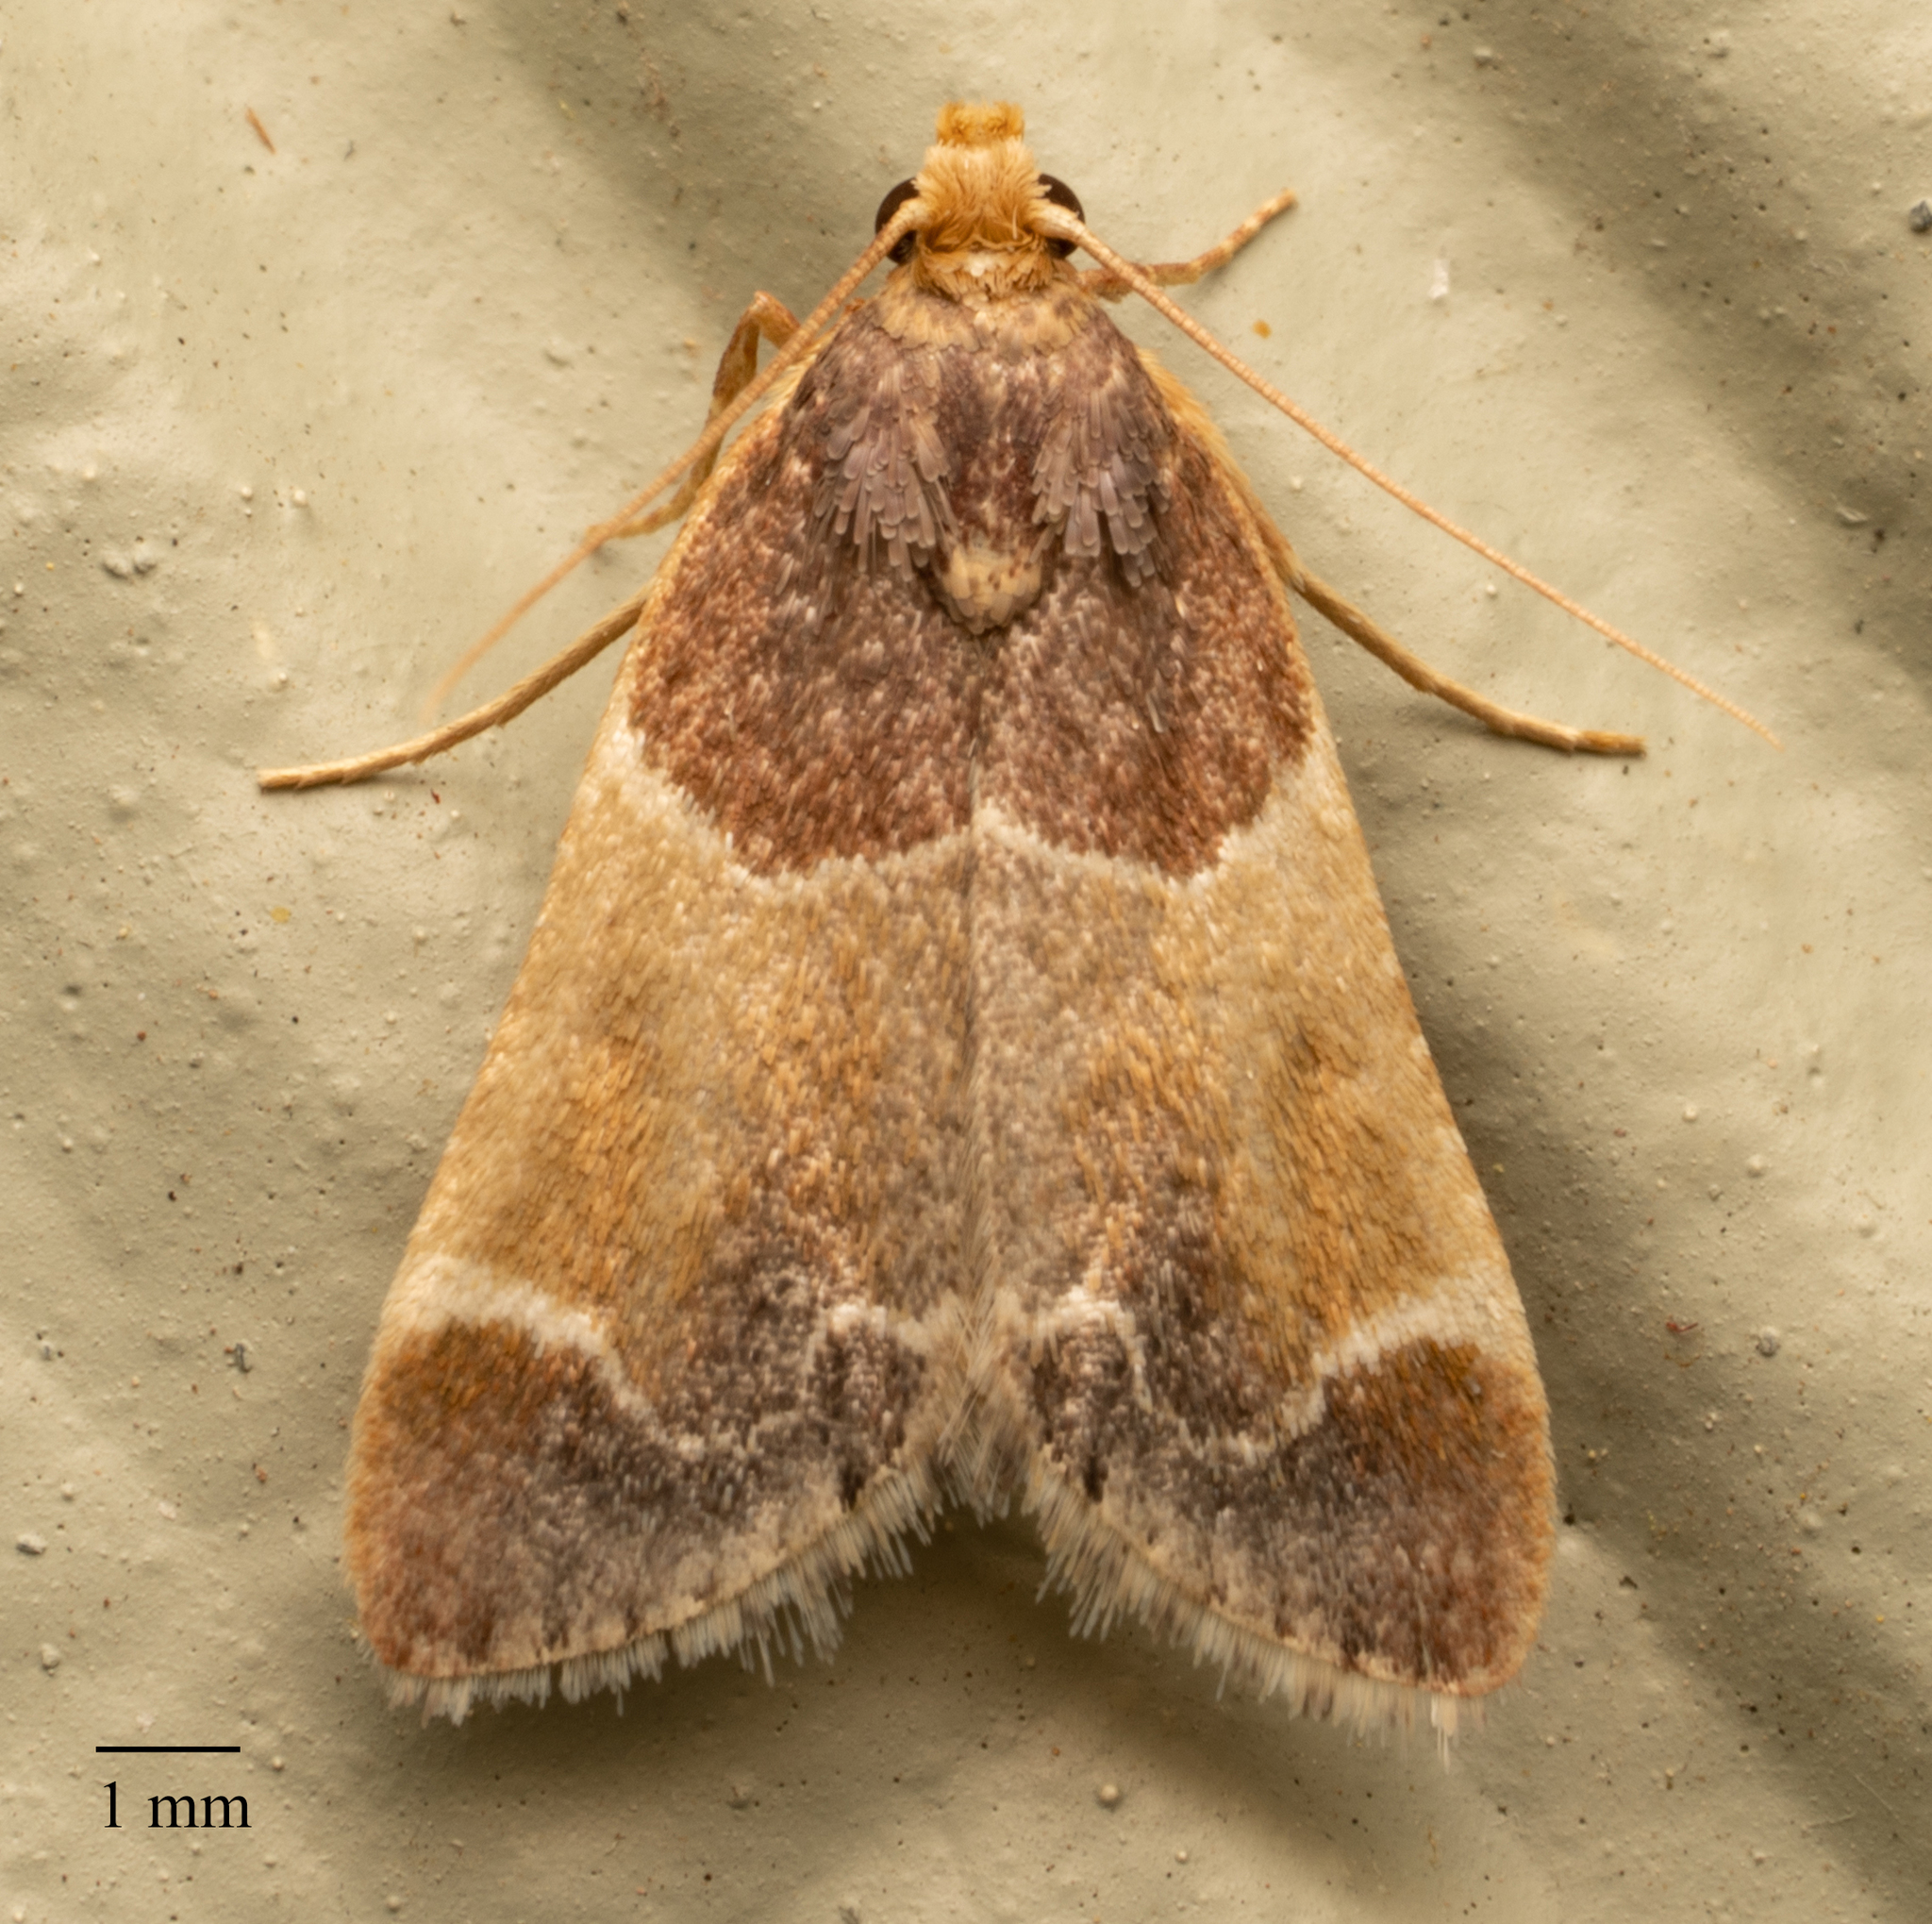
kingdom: Animalia
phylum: Arthropoda
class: Insecta
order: Lepidoptera
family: Pyralidae
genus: Pyralis
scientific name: Pyralis farinalis
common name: Meal moth
